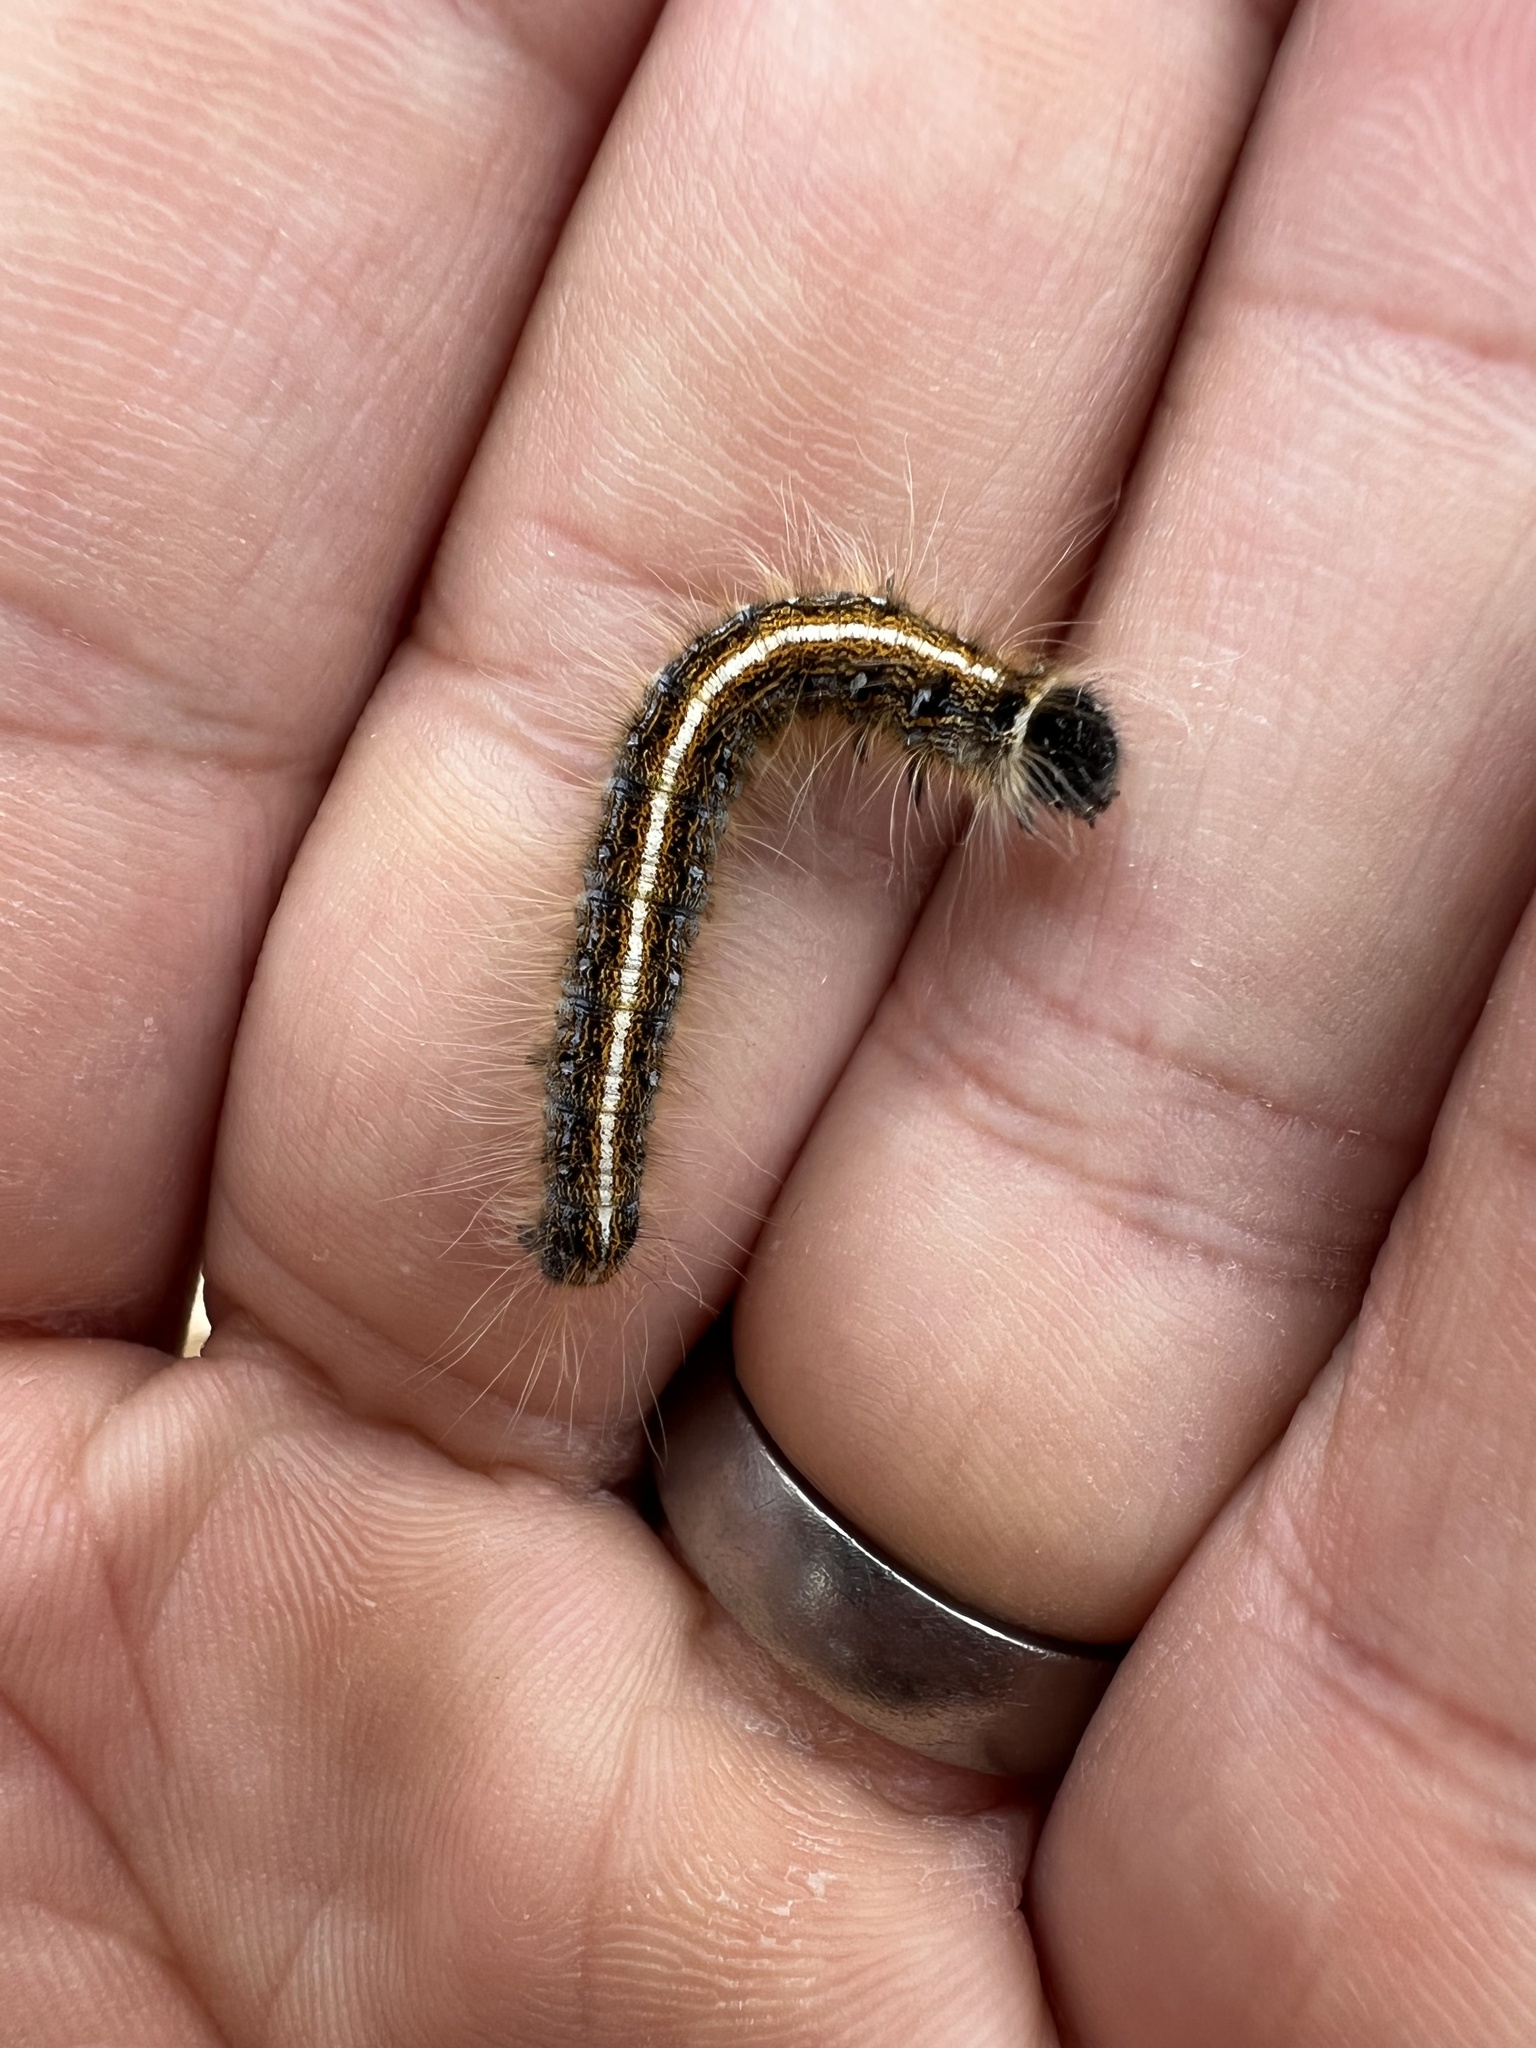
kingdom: Animalia
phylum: Arthropoda
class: Insecta
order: Lepidoptera
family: Lasiocampidae
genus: Malacosoma
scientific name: Malacosoma americana
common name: Eastern tent caterpillar moth
